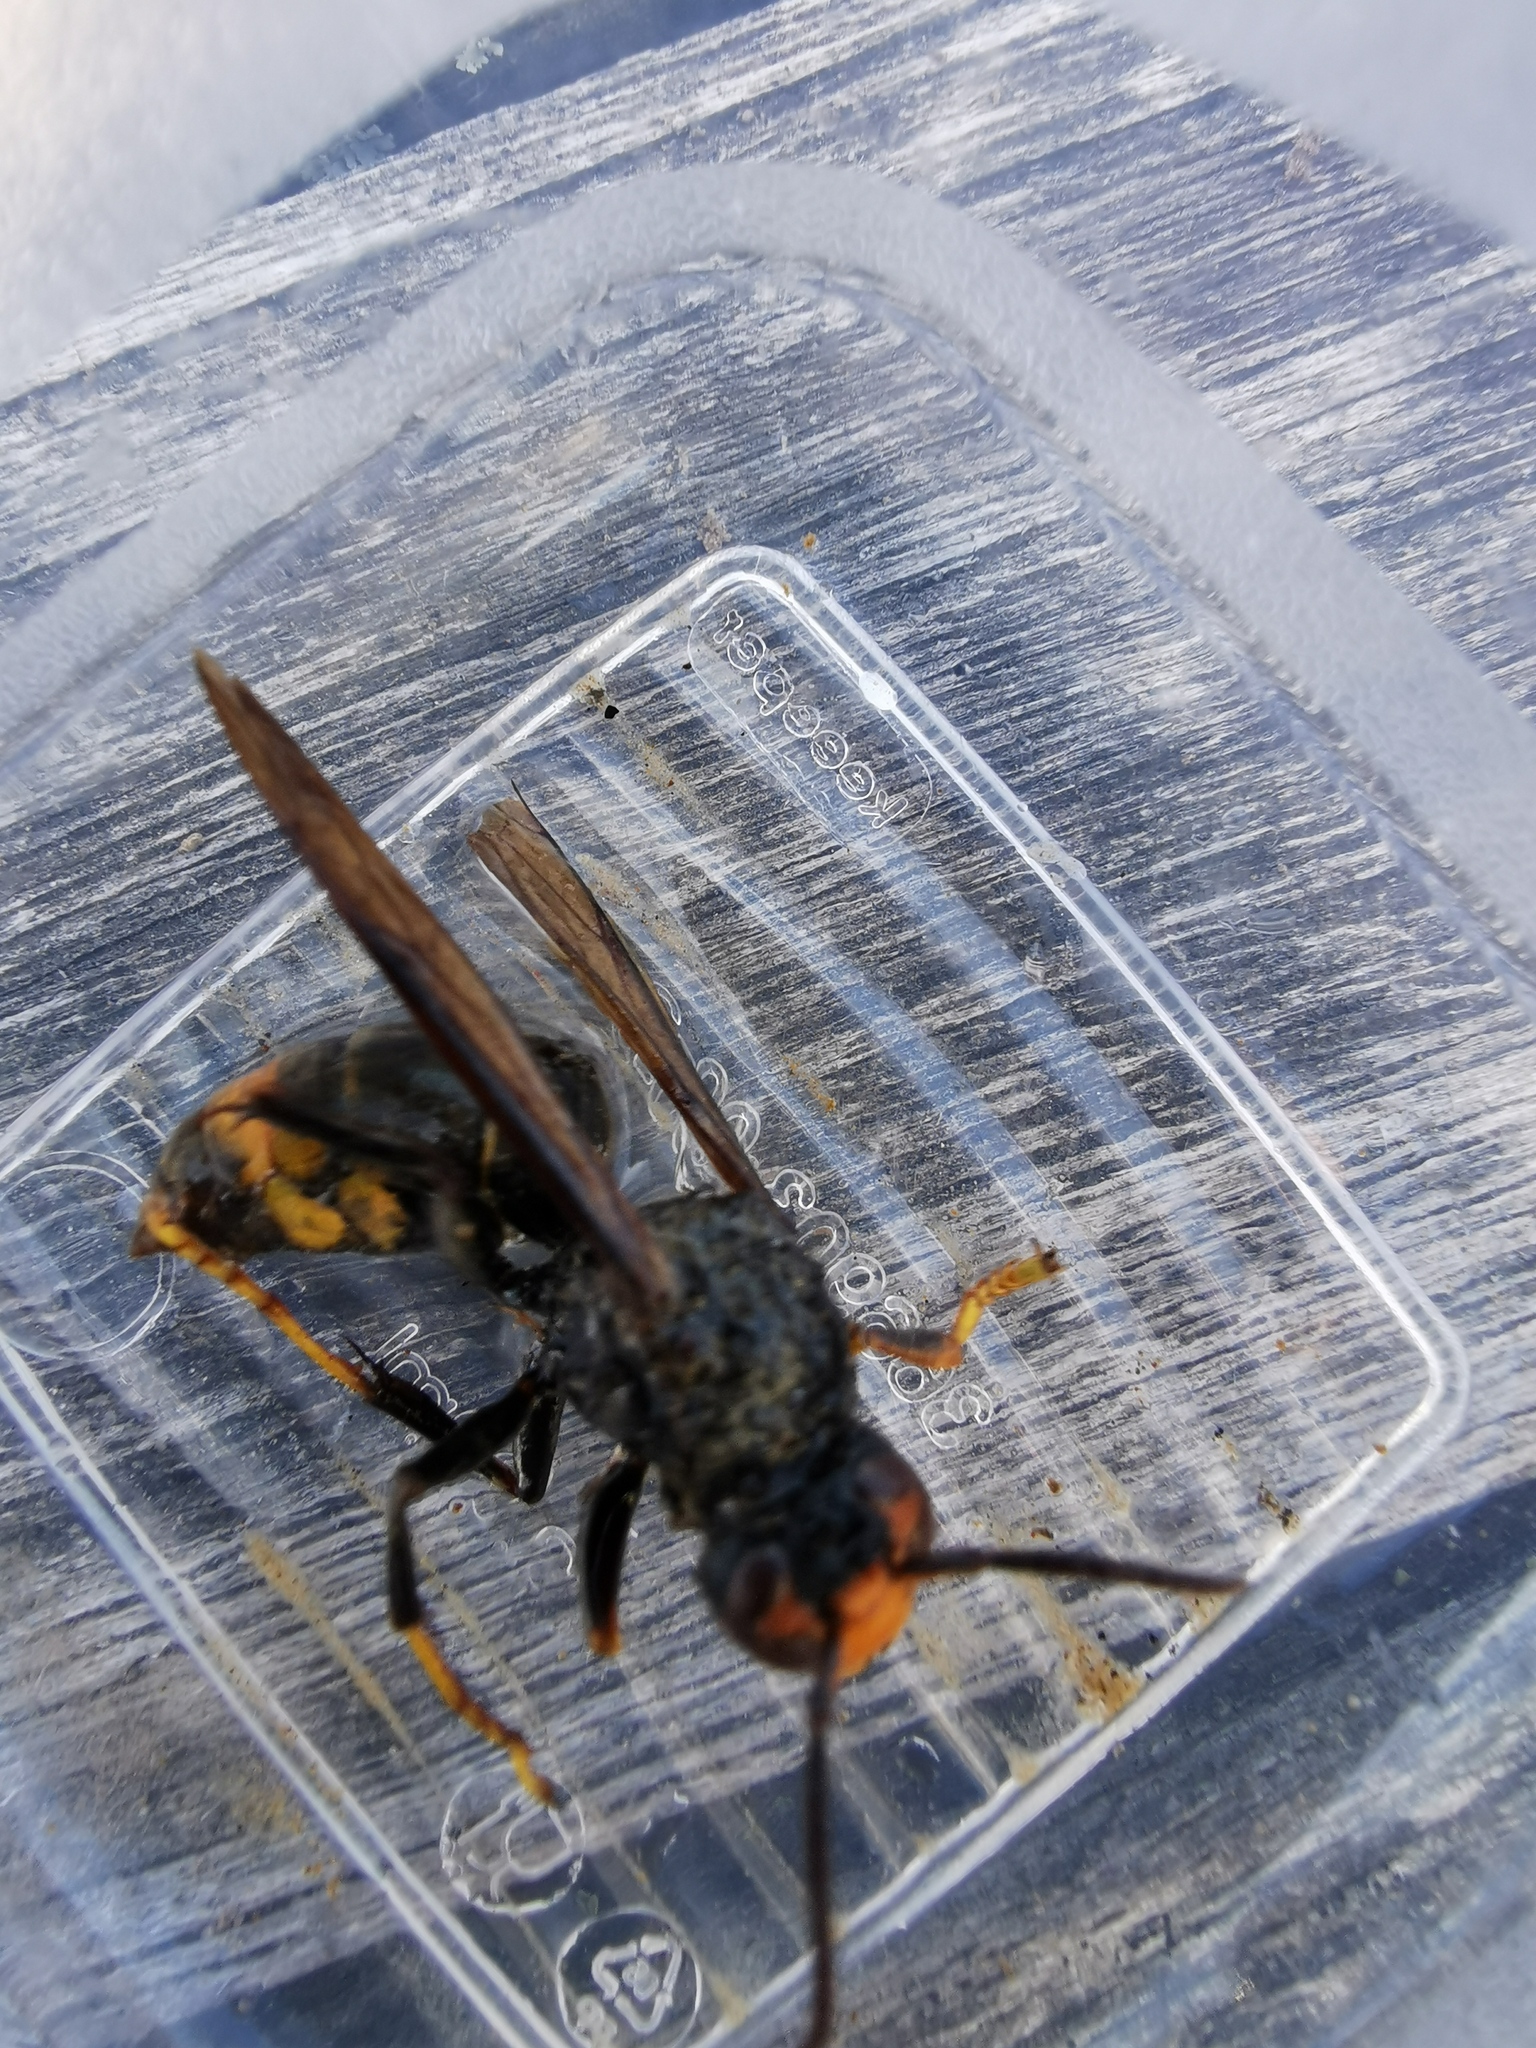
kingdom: Animalia
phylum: Arthropoda
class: Insecta
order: Hymenoptera
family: Vespidae
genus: Vespa
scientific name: Vespa velutina
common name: Asian hornet
